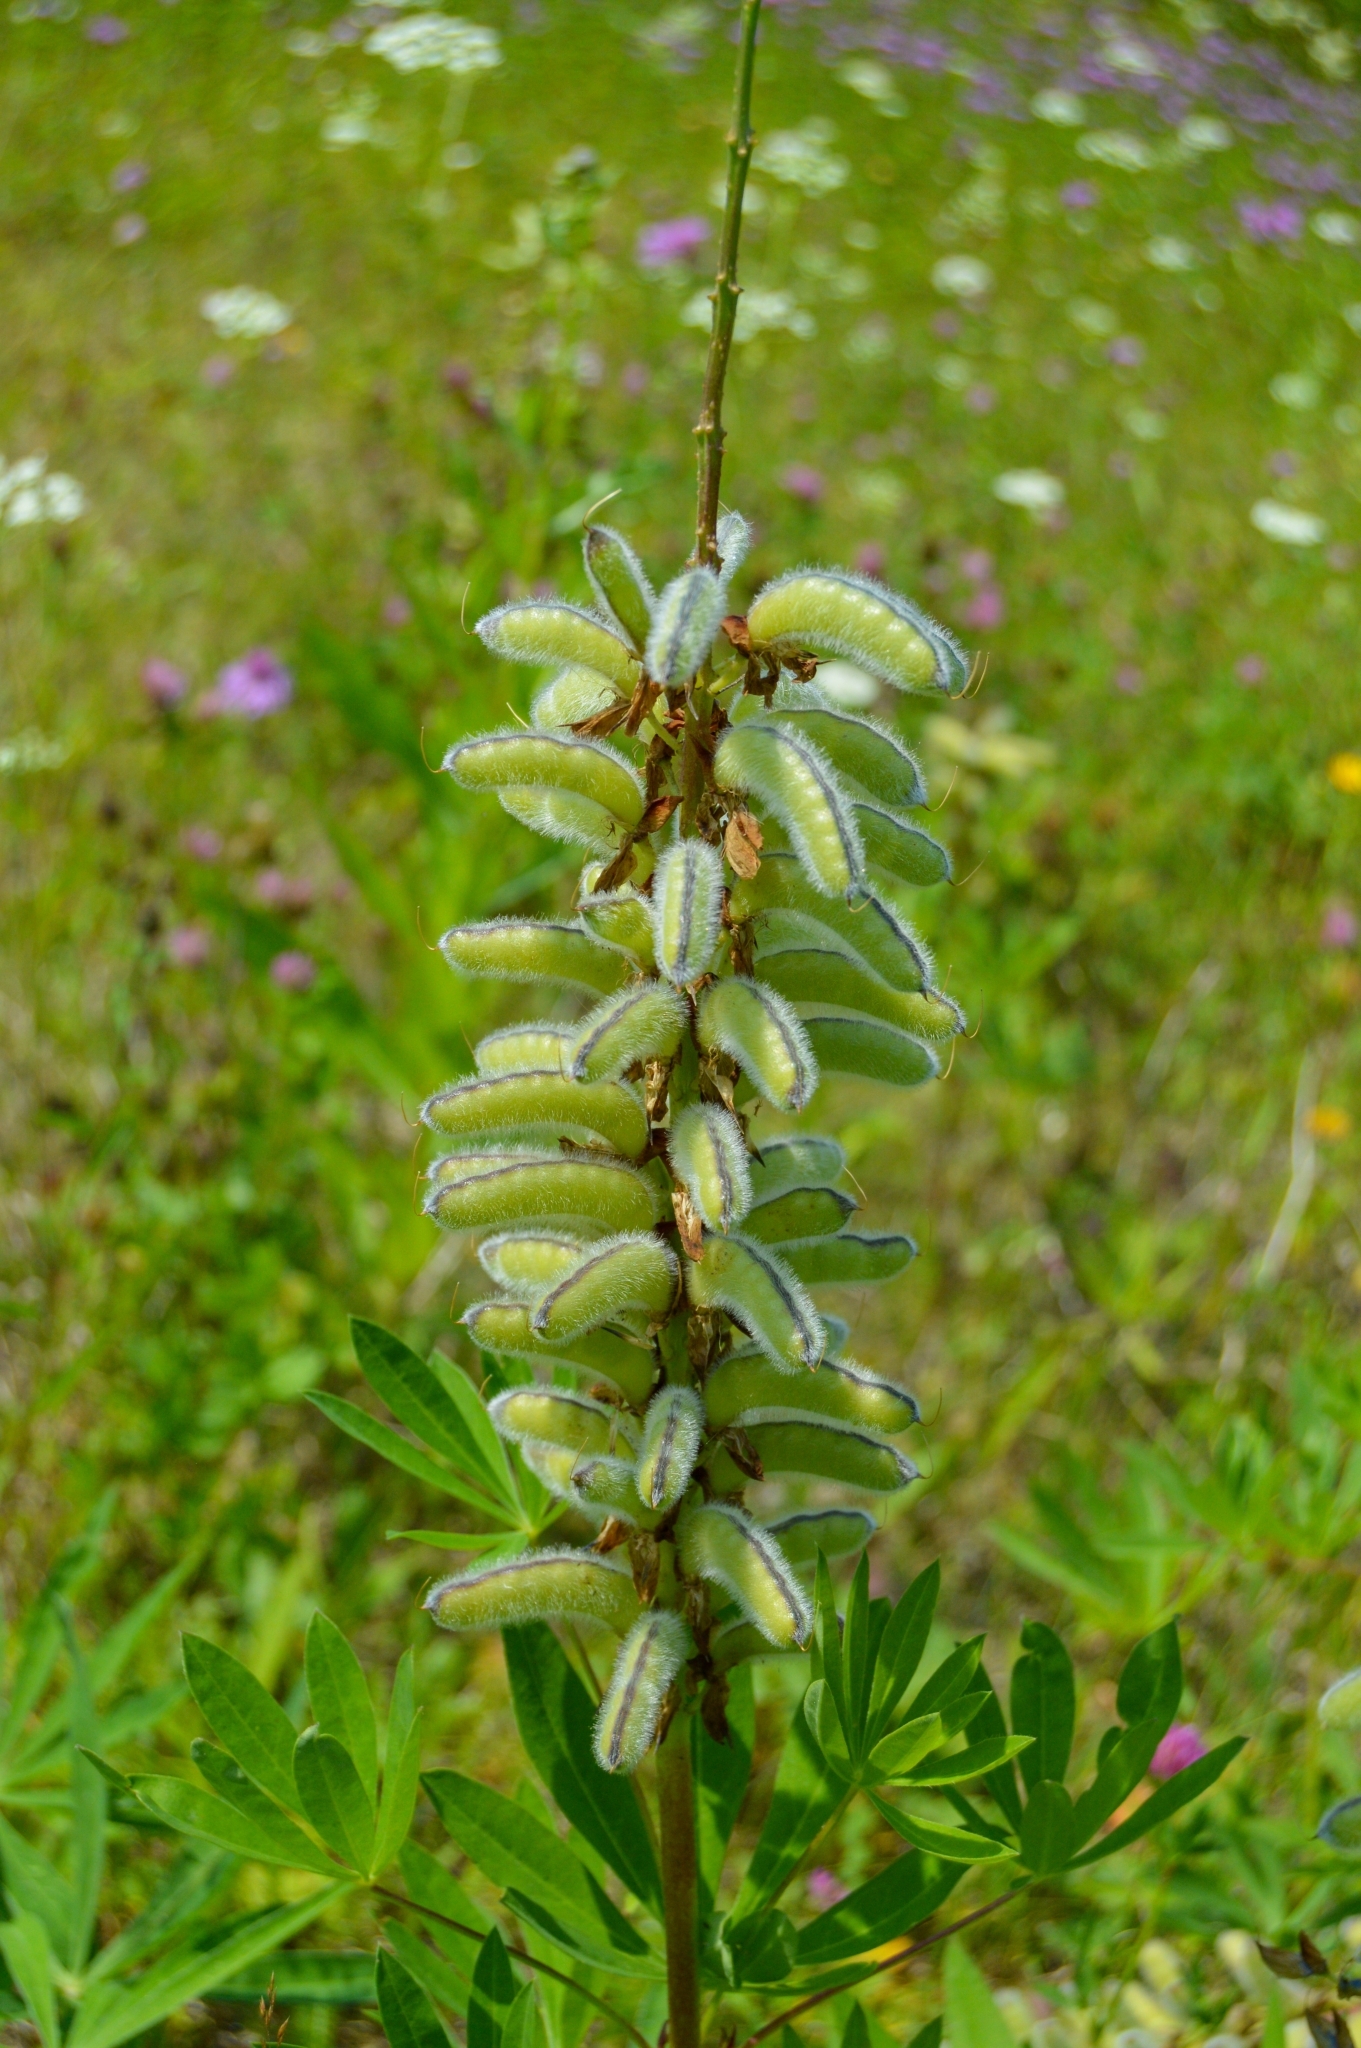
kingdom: Plantae
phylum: Tracheophyta
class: Magnoliopsida
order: Fabales
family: Fabaceae
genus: Lupinus
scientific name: Lupinus polyphyllus
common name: Garden lupin
